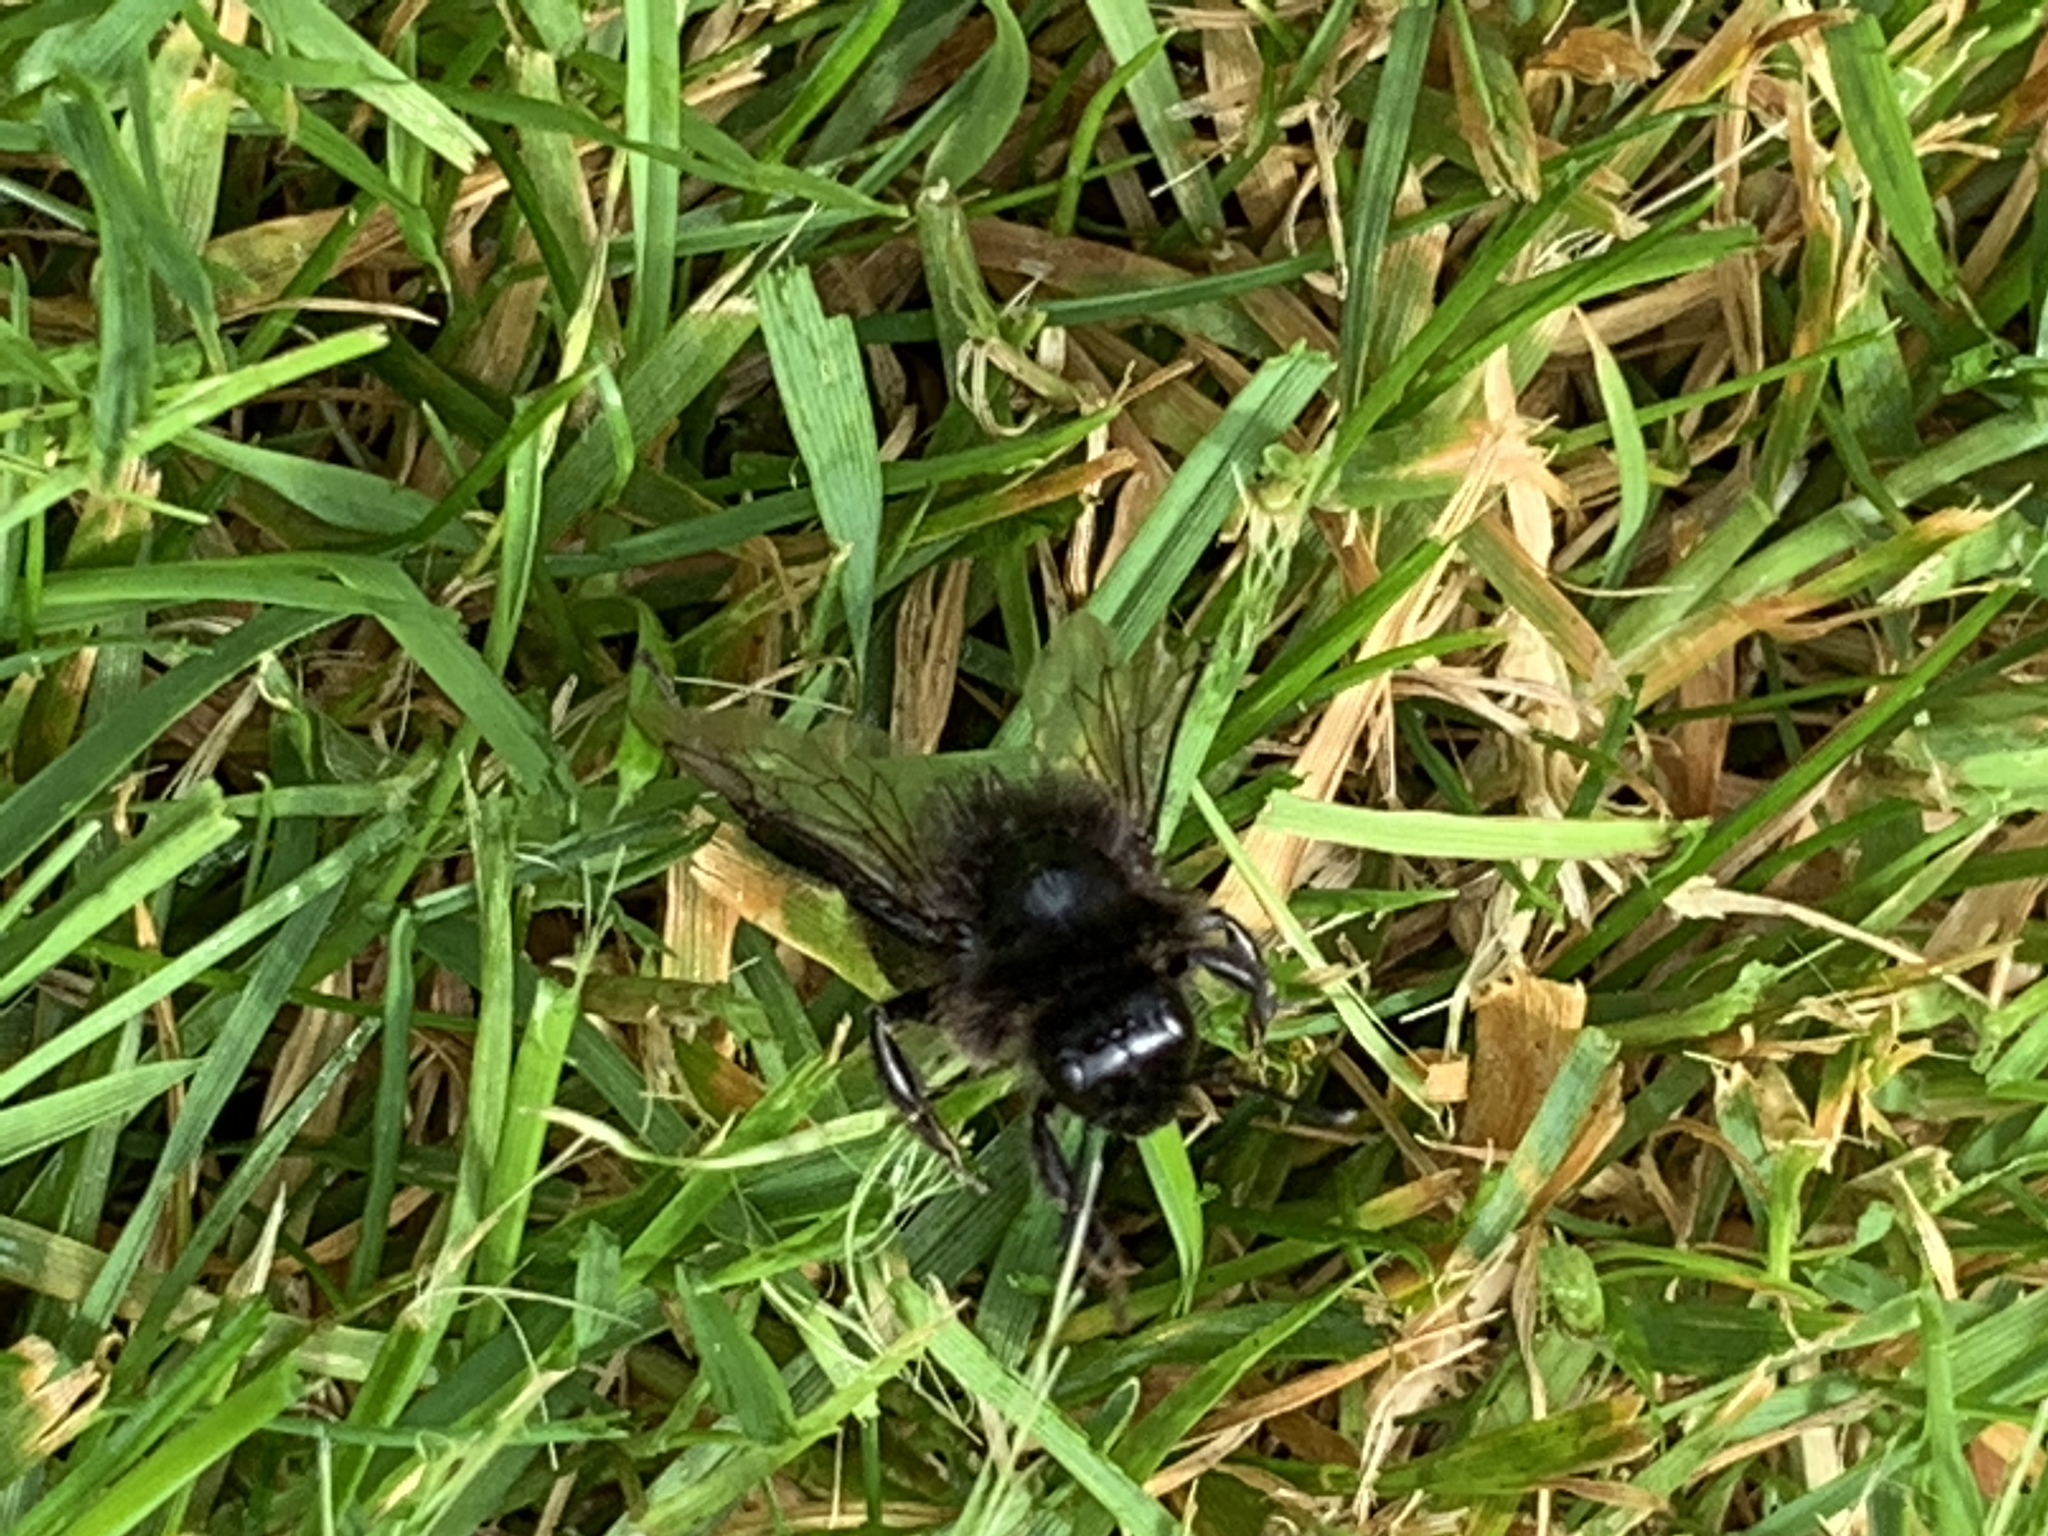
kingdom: Animalia
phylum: Arthropoda
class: Insecta
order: Hymenoptera
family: Apidae
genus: Bombus
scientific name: Bombus lapidarius
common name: Large red-tailed humble-bee
